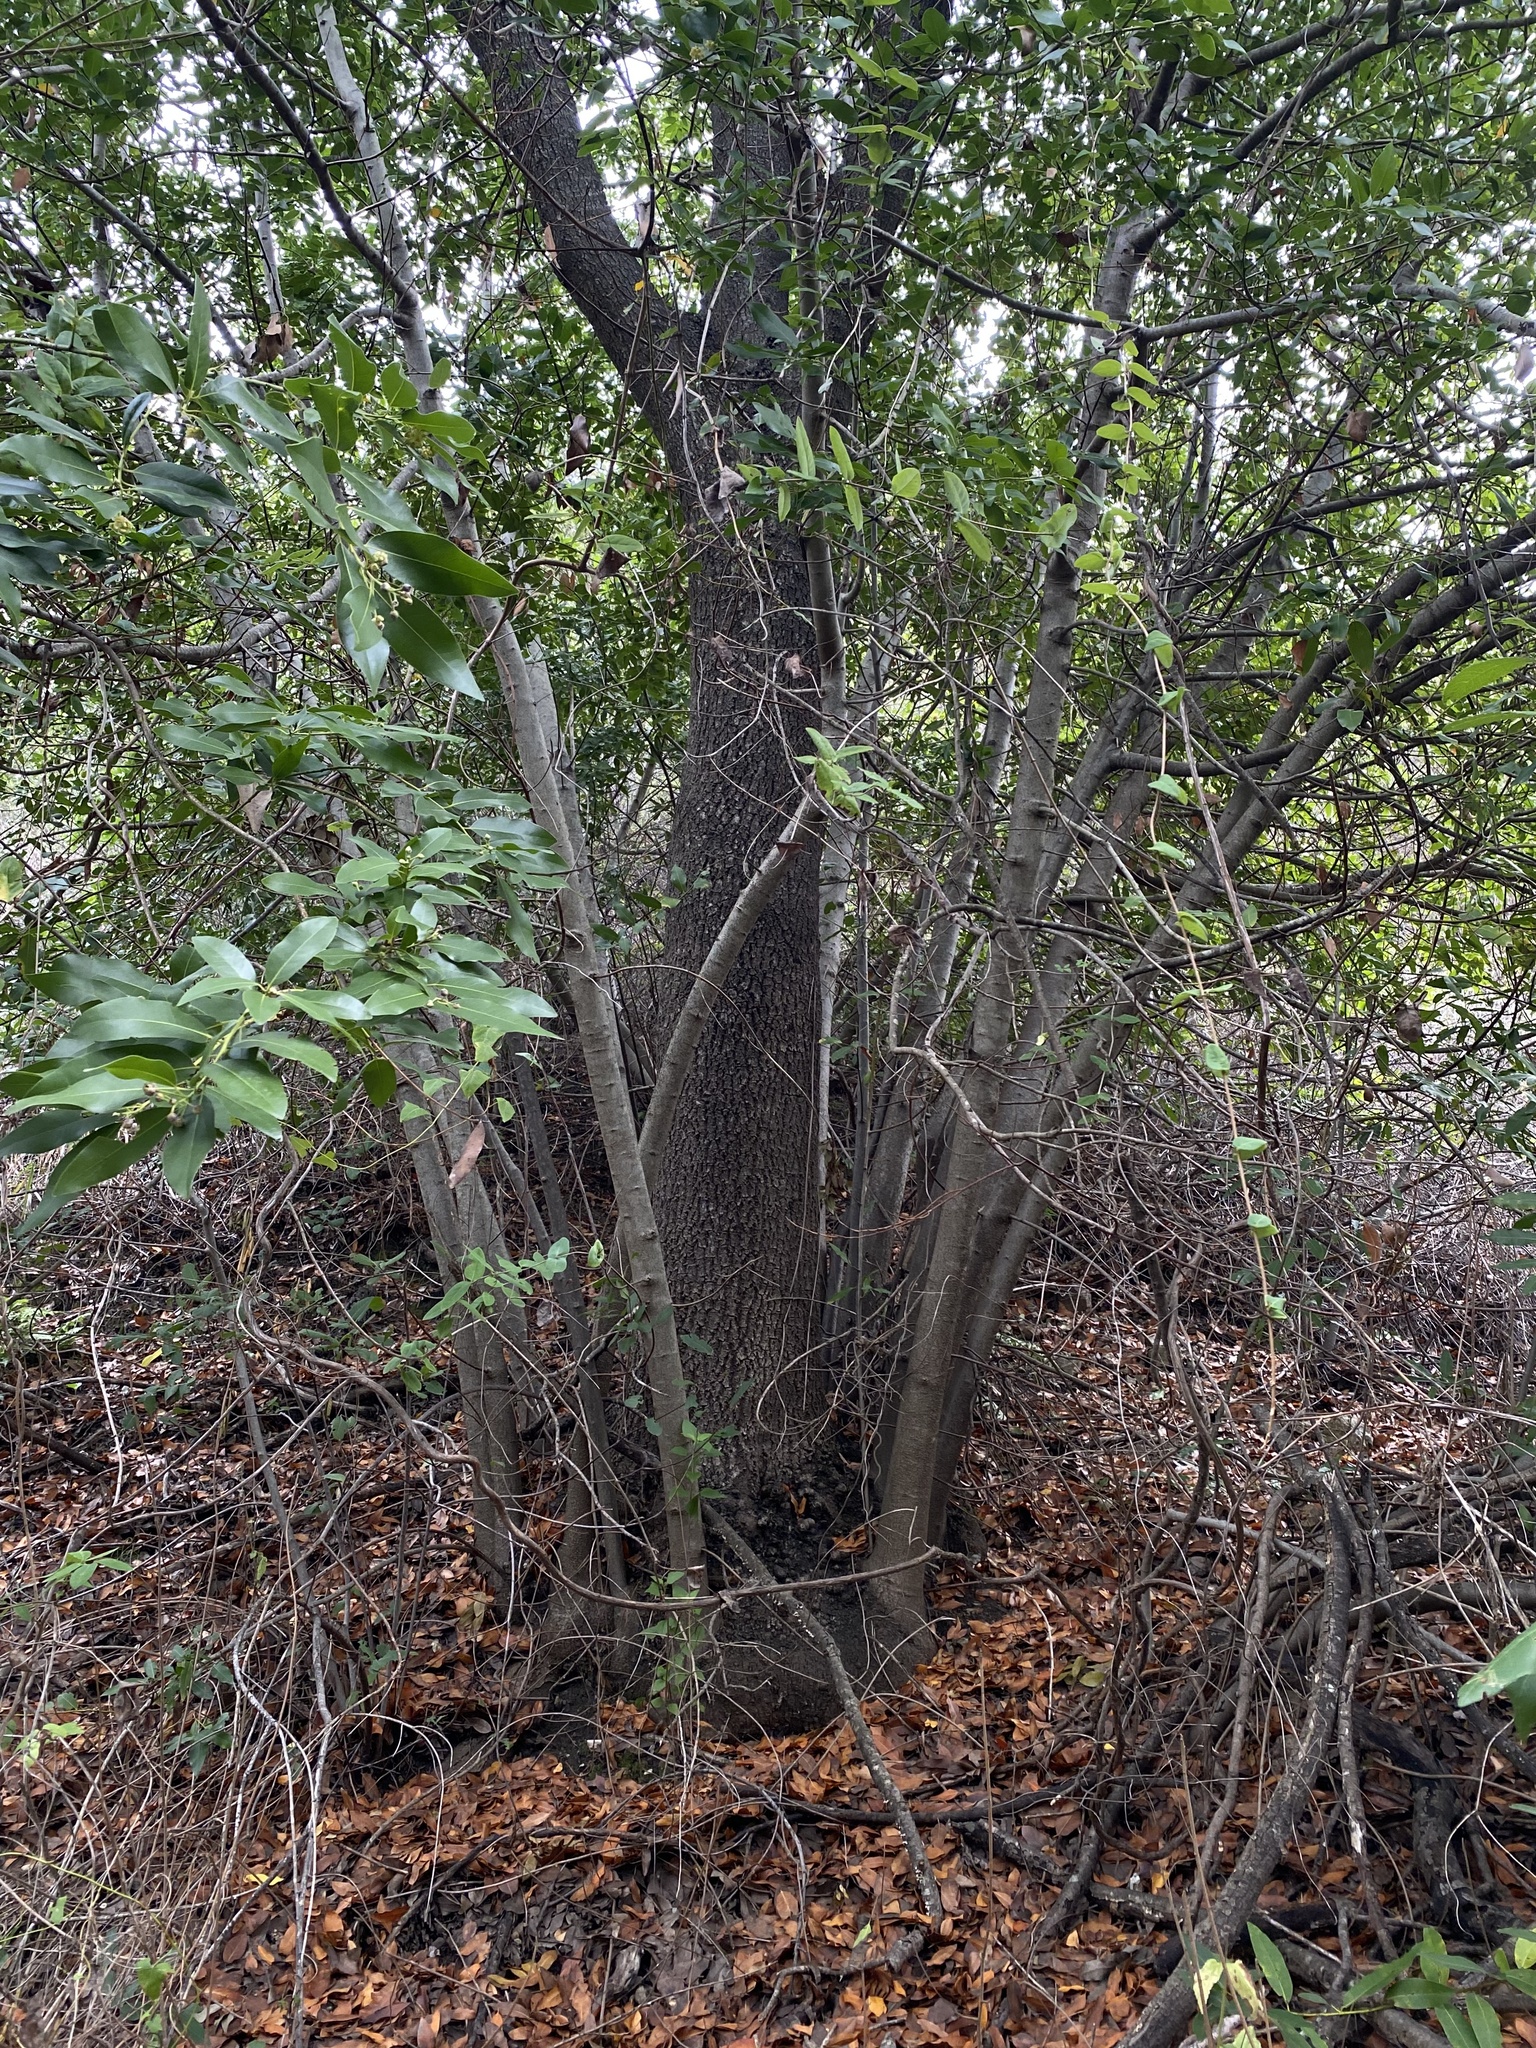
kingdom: Plantae
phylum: Tracheophyta
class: Magnoliopsida
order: Laurales
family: Lauraceae
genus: Umbellularia
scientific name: Umbellularia californica
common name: California bay
